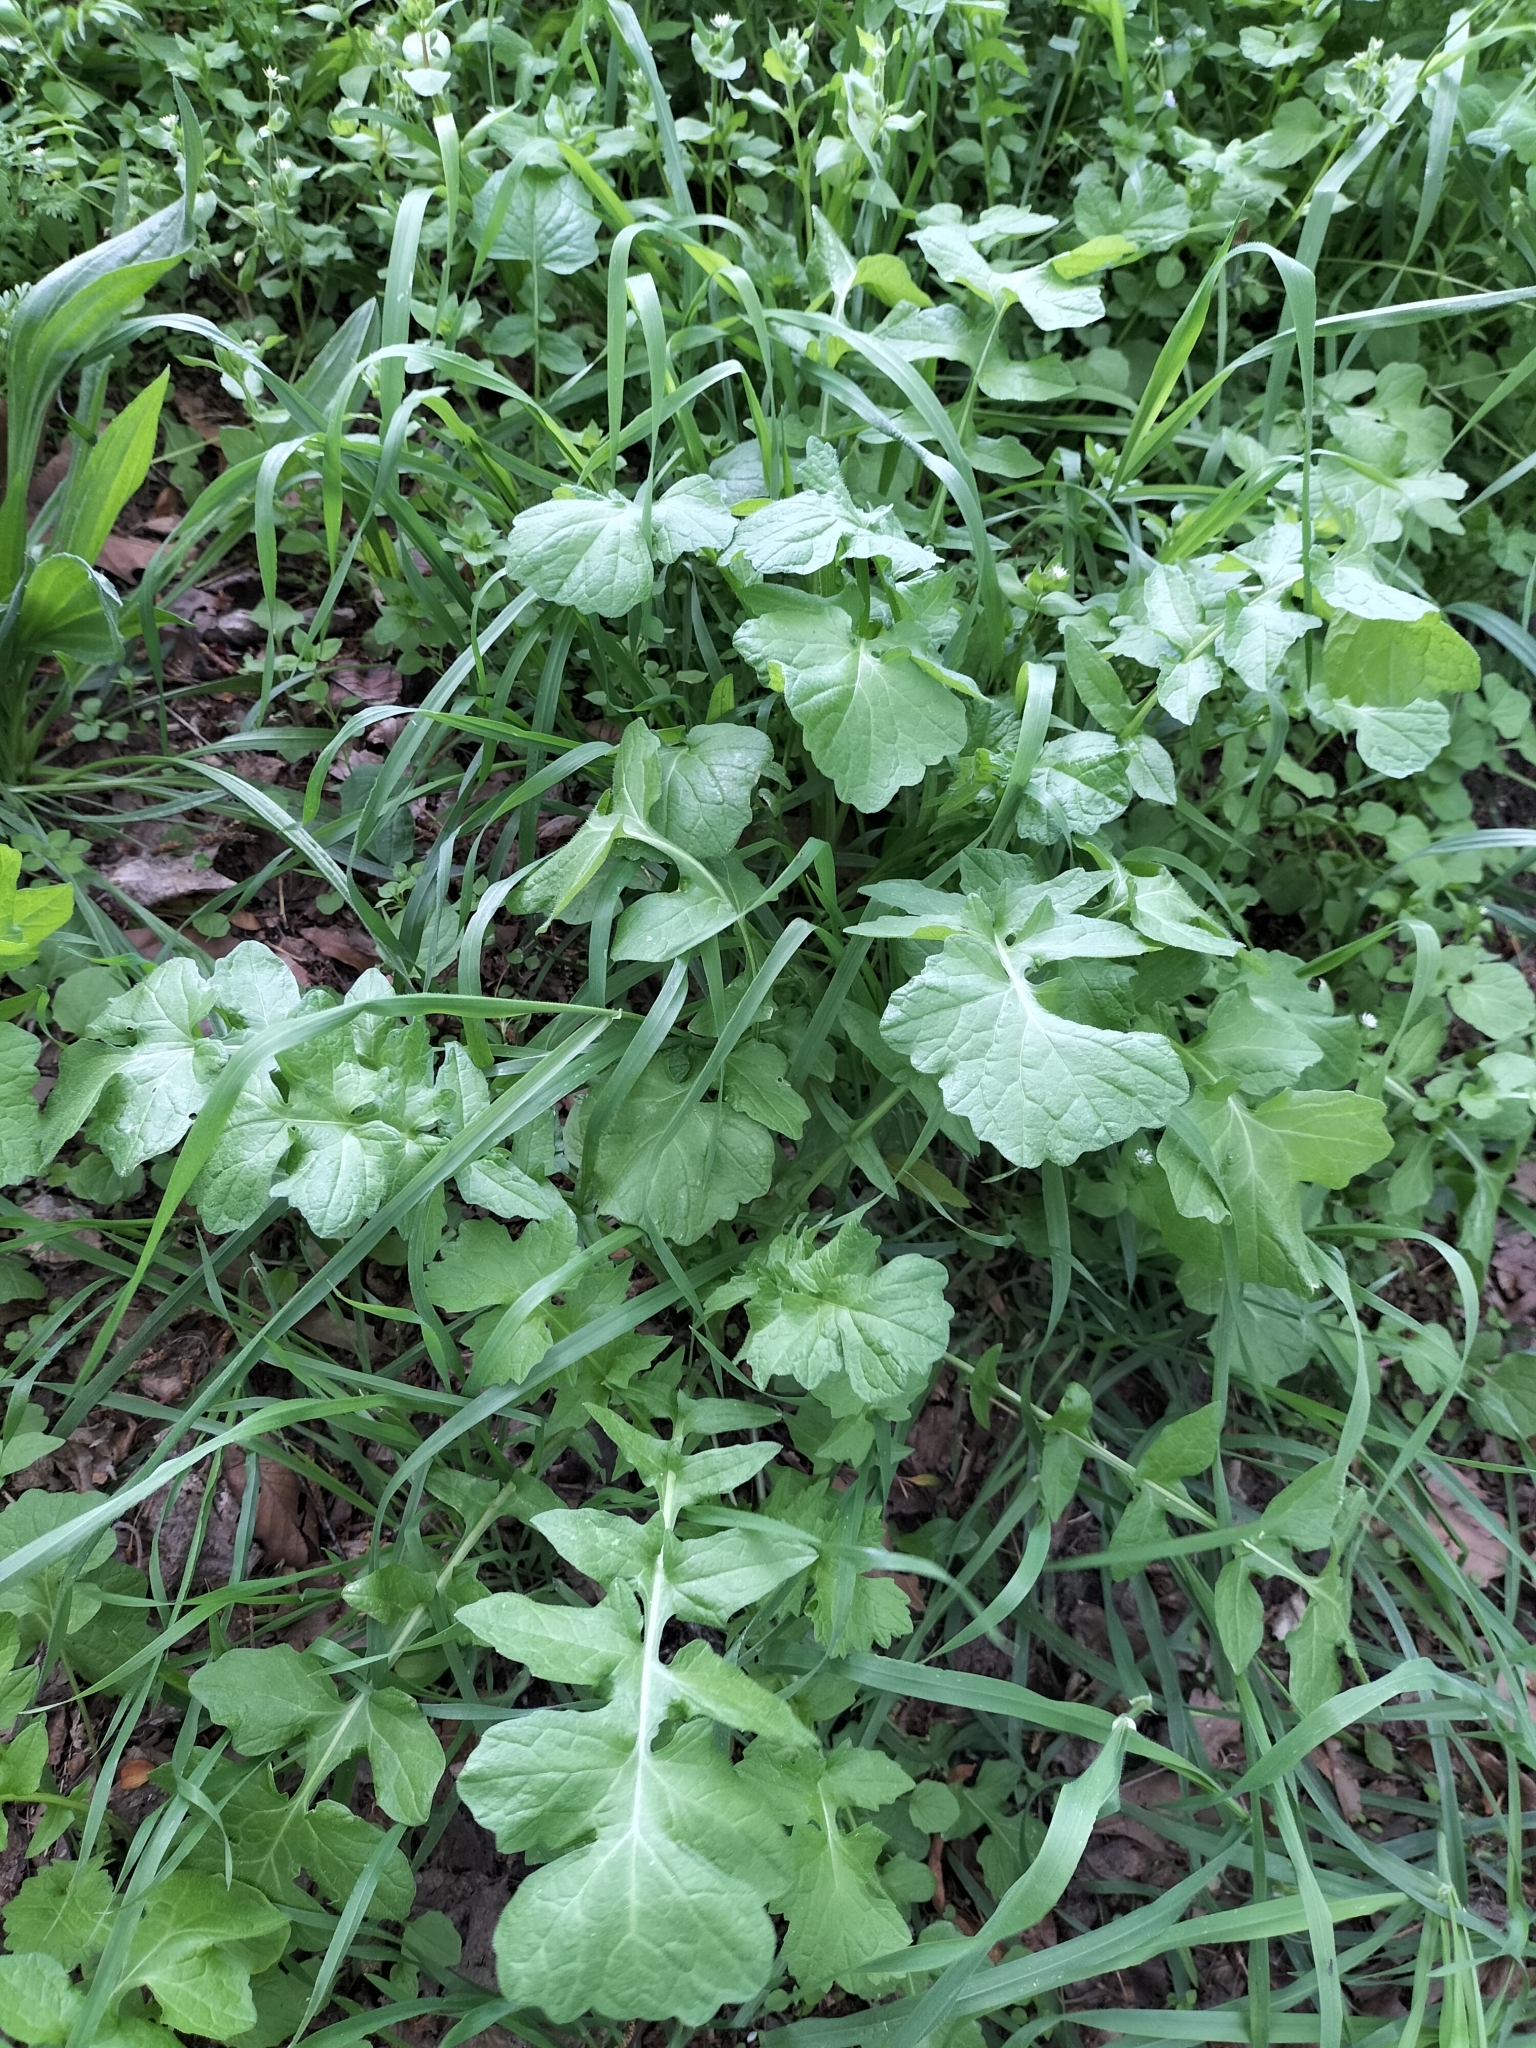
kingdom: Plantae
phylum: Tracheophyta
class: Magnoliopsida
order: Asterales
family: Asteraceae
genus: Lapsana
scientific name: Lapsana communis
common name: Nipplewort
